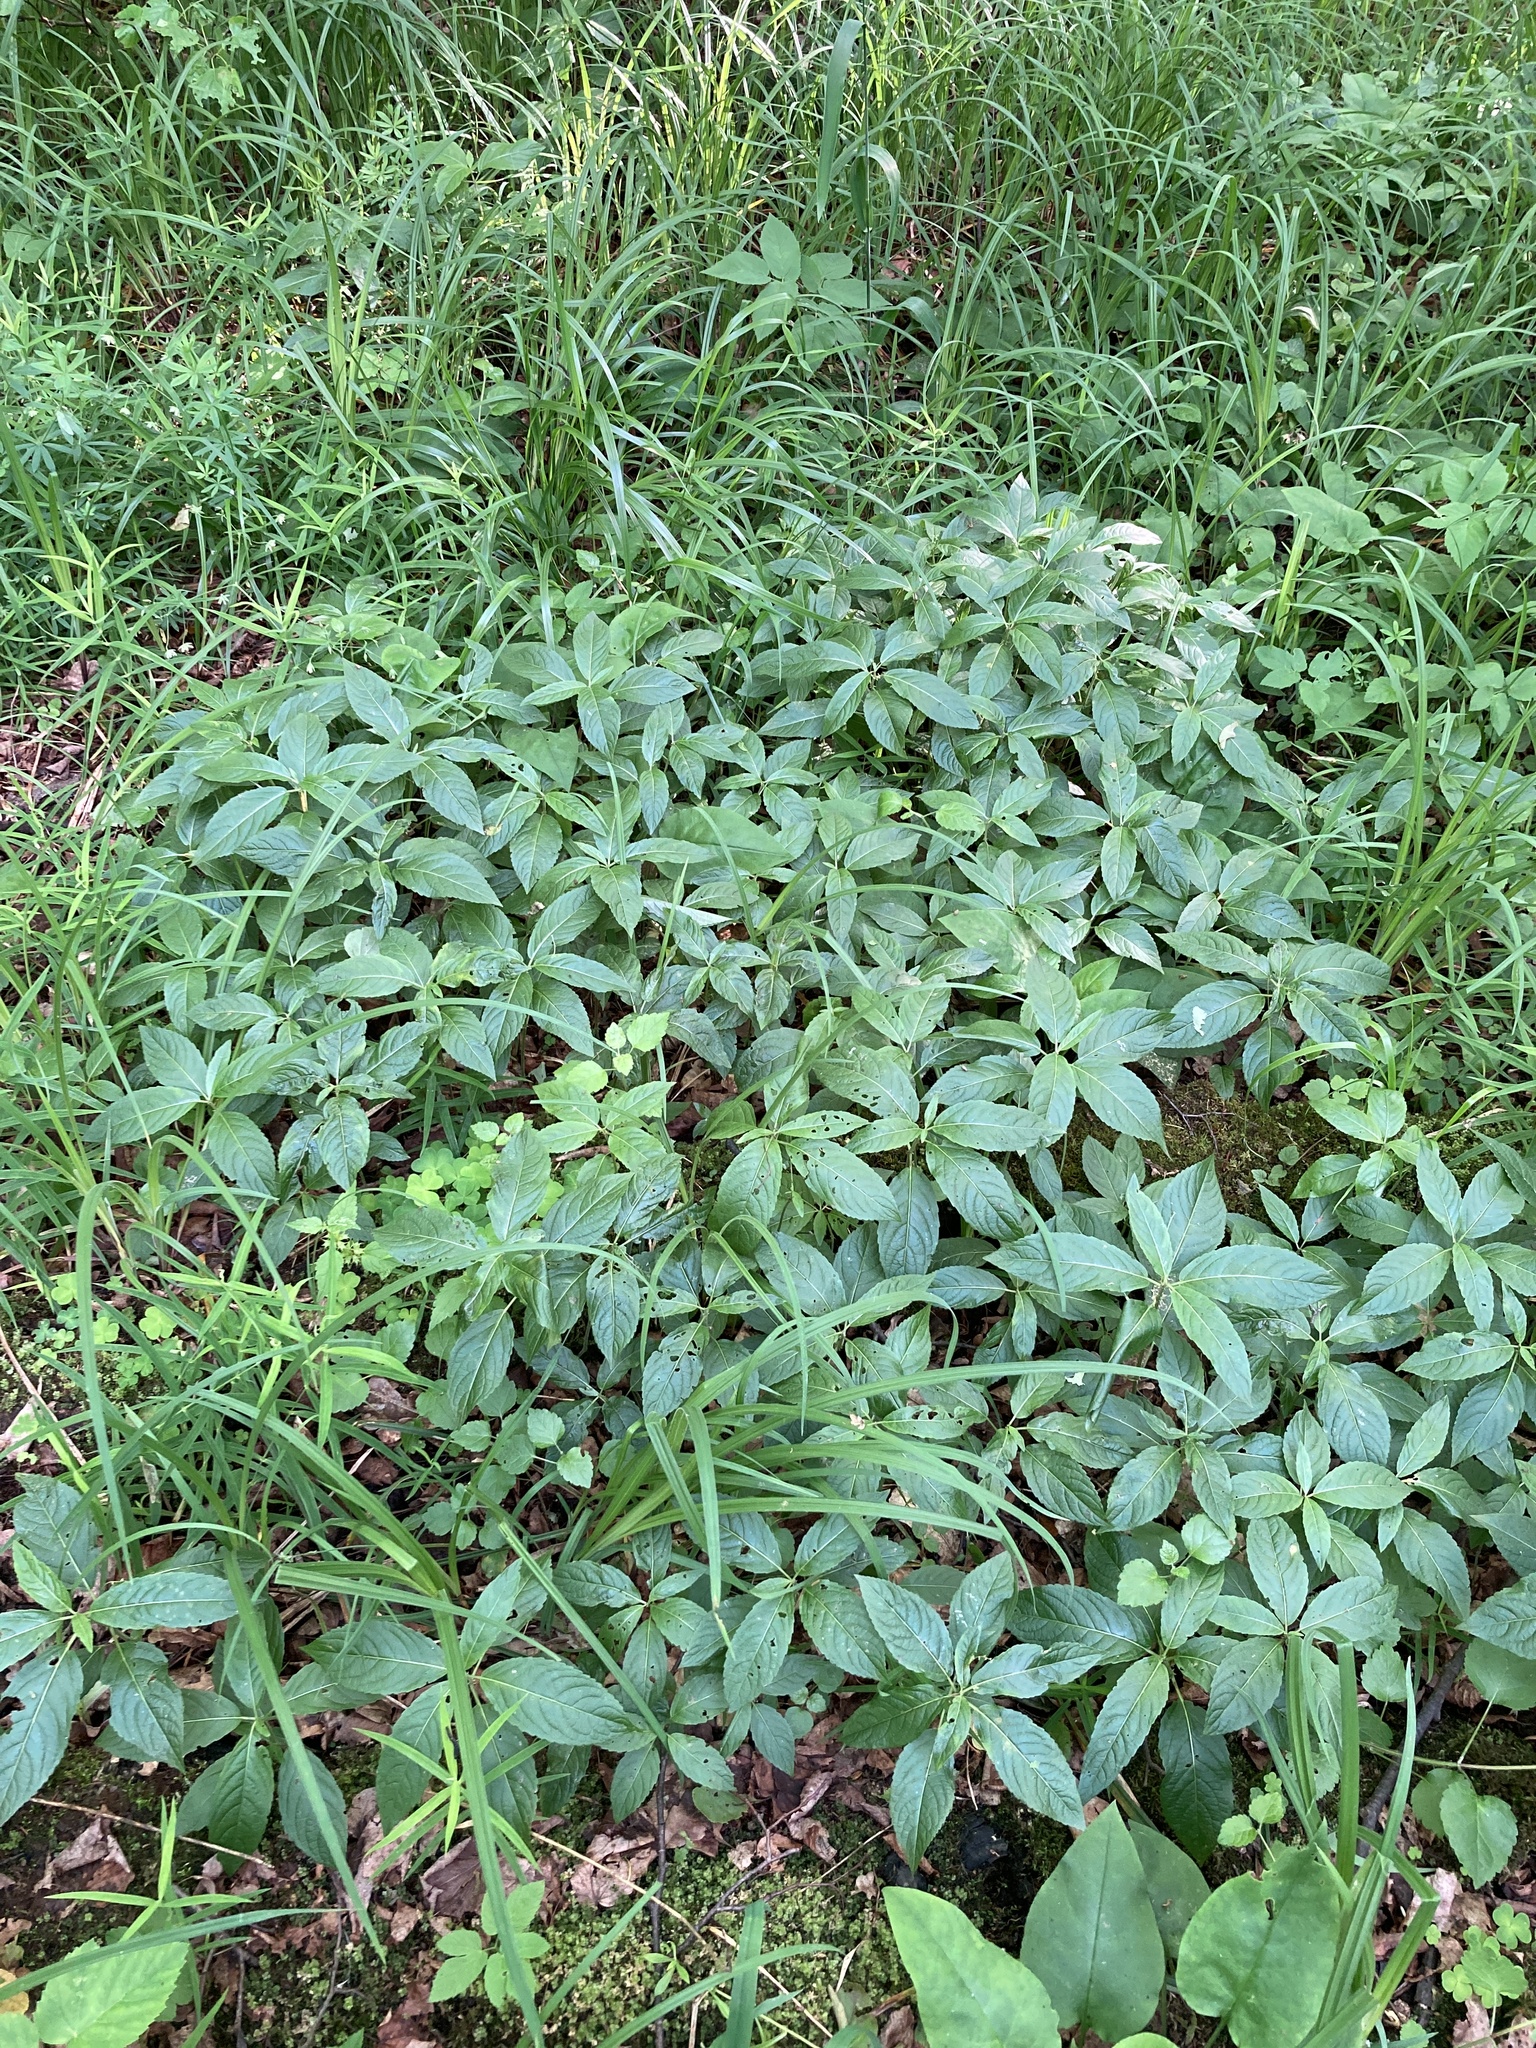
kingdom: Plantae
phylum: Tracheophyta
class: Magnoliopsida
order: Malpighiales
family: Euphorbiaceae
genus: Mercurialis
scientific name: Mercurialis perennis
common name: Dog mercury
